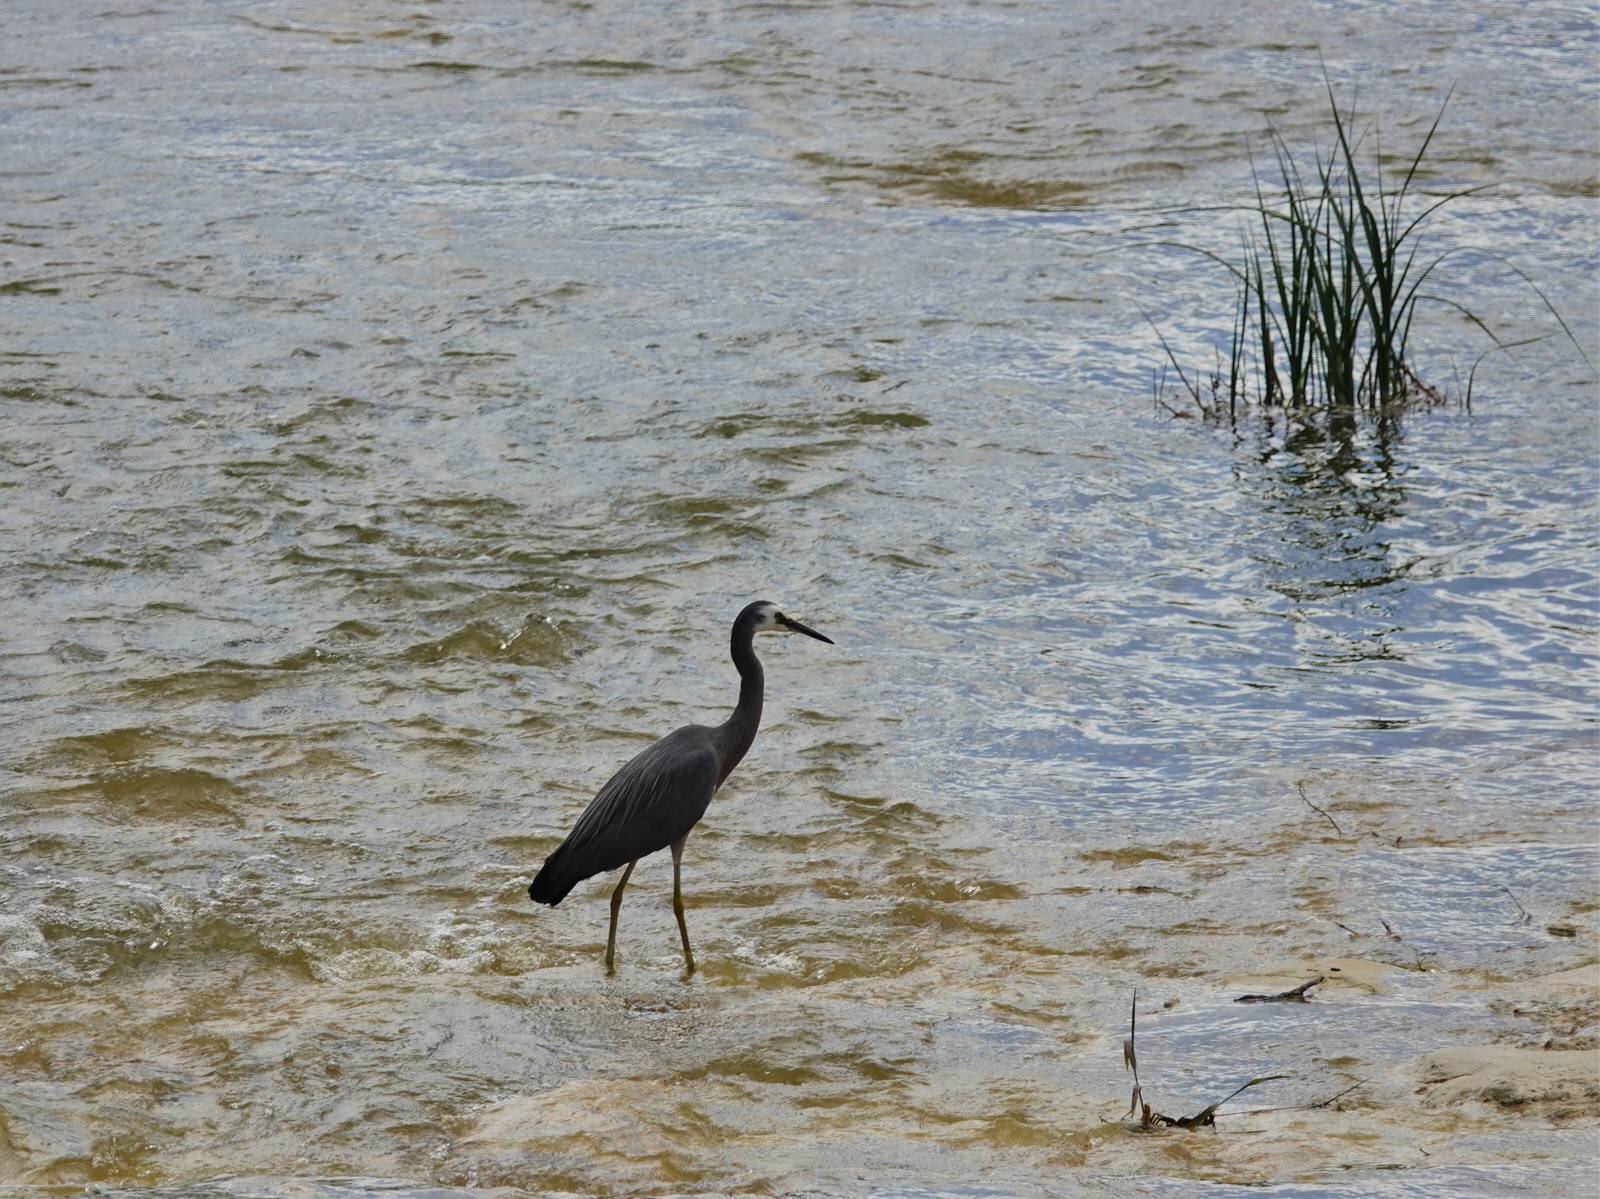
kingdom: Animalia
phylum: Chordata
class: Aves
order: Pelecaniformes
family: Ardeidae
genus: Egretta
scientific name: Egretta novaehollandiae
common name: White-faced heron
